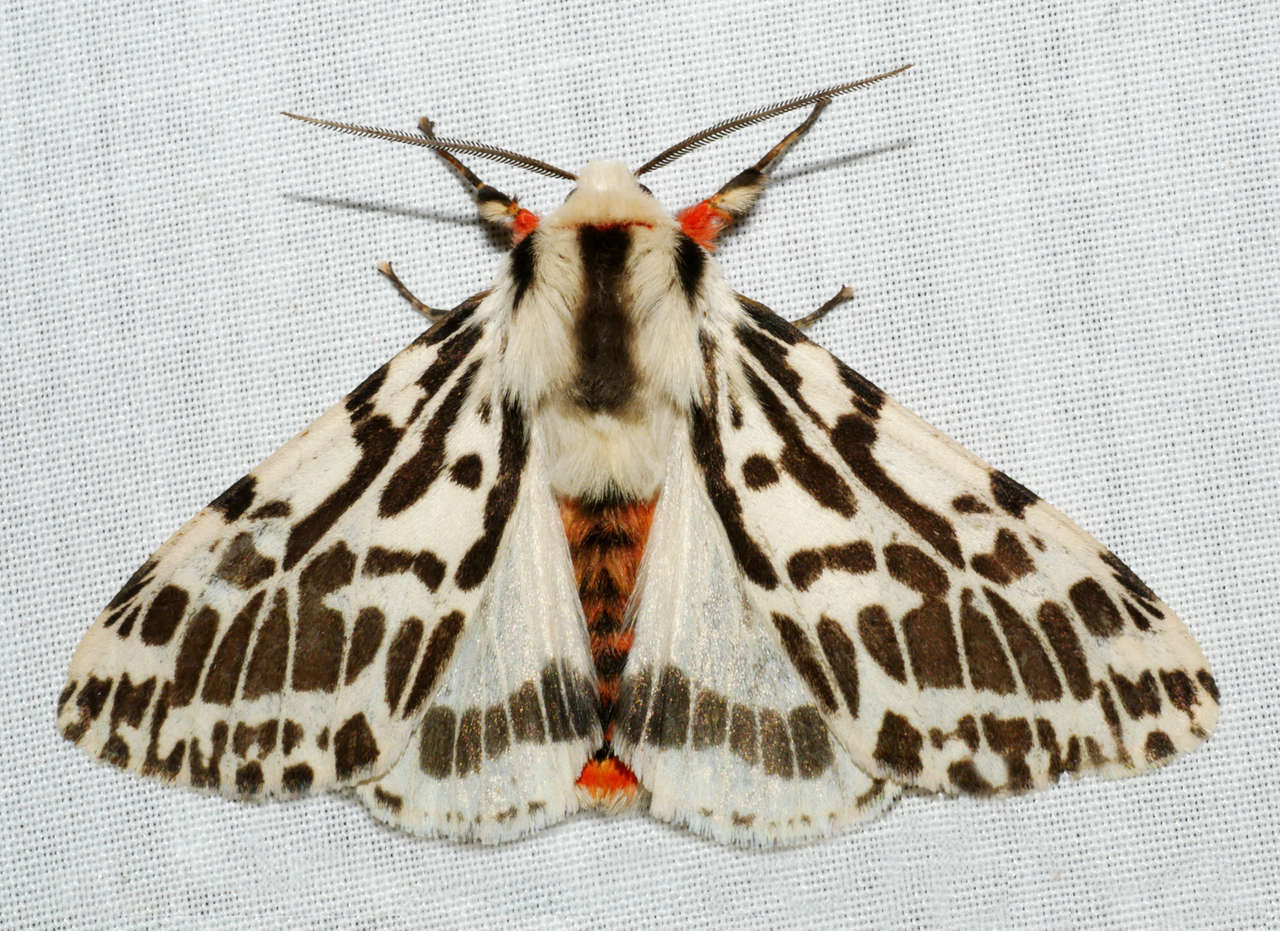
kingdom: Animalia
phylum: Arthropoda
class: Insecta
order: Lepidoptera
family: Erebidae
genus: Ardices
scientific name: Ardices glatignyi
